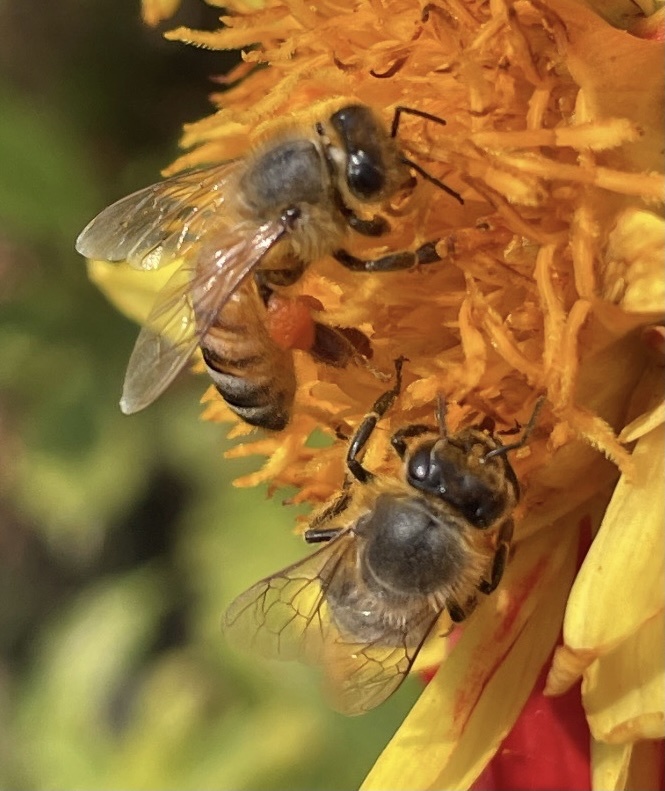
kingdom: Animalia
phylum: Arthropoda
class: Insecta
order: Hymenoptera
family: Apidae
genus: Apis
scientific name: Apis mellifera
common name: Honey bee
